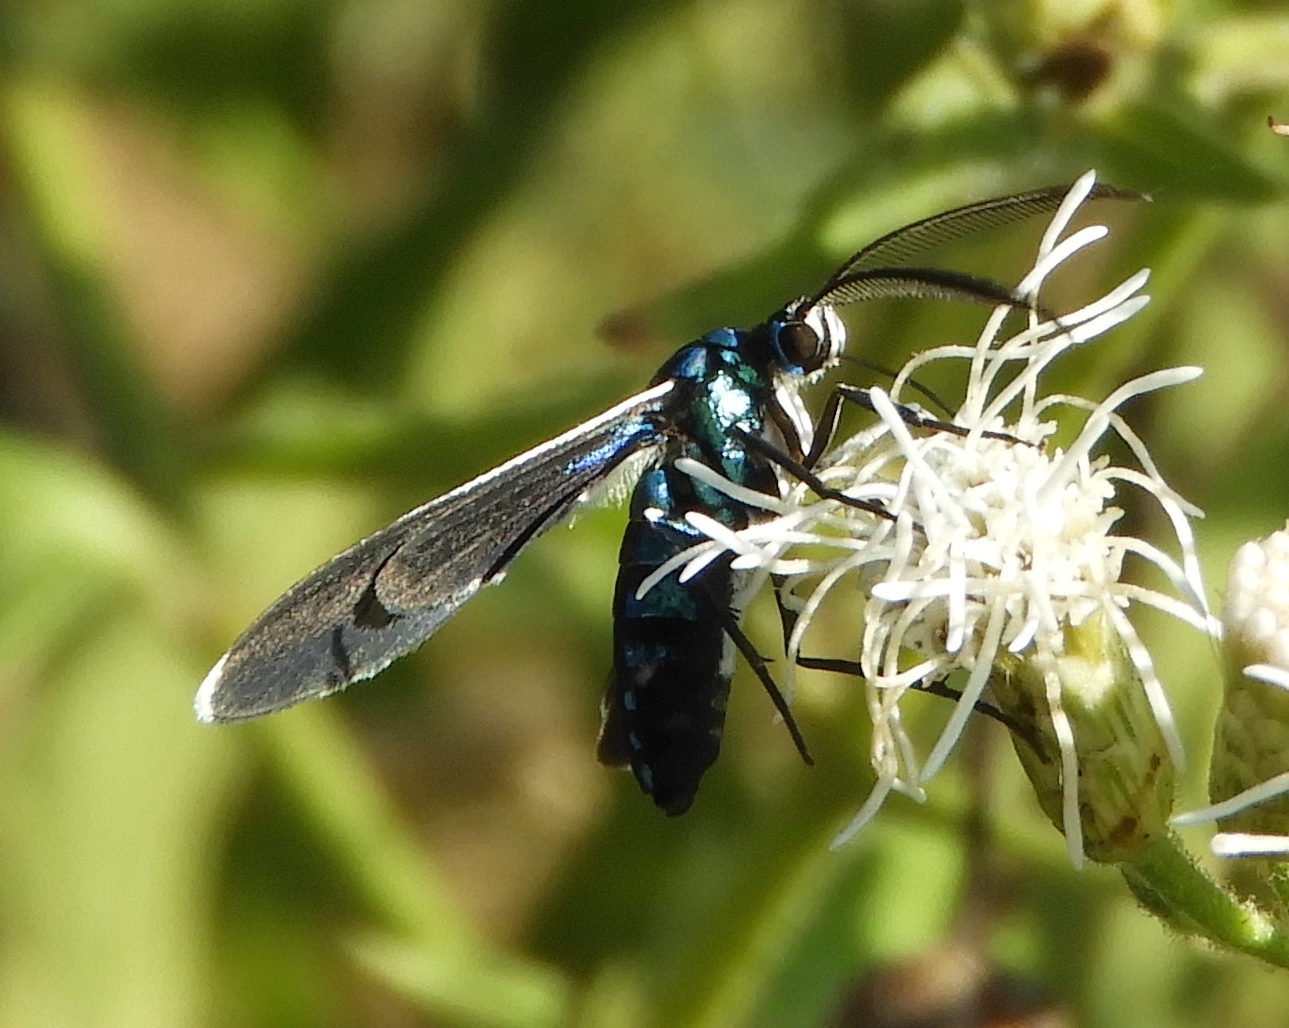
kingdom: Animalia
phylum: Arthropoda
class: Insecta
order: Lepidoptera
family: Erebidae
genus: Uranophora
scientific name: Uranophora leucotela
